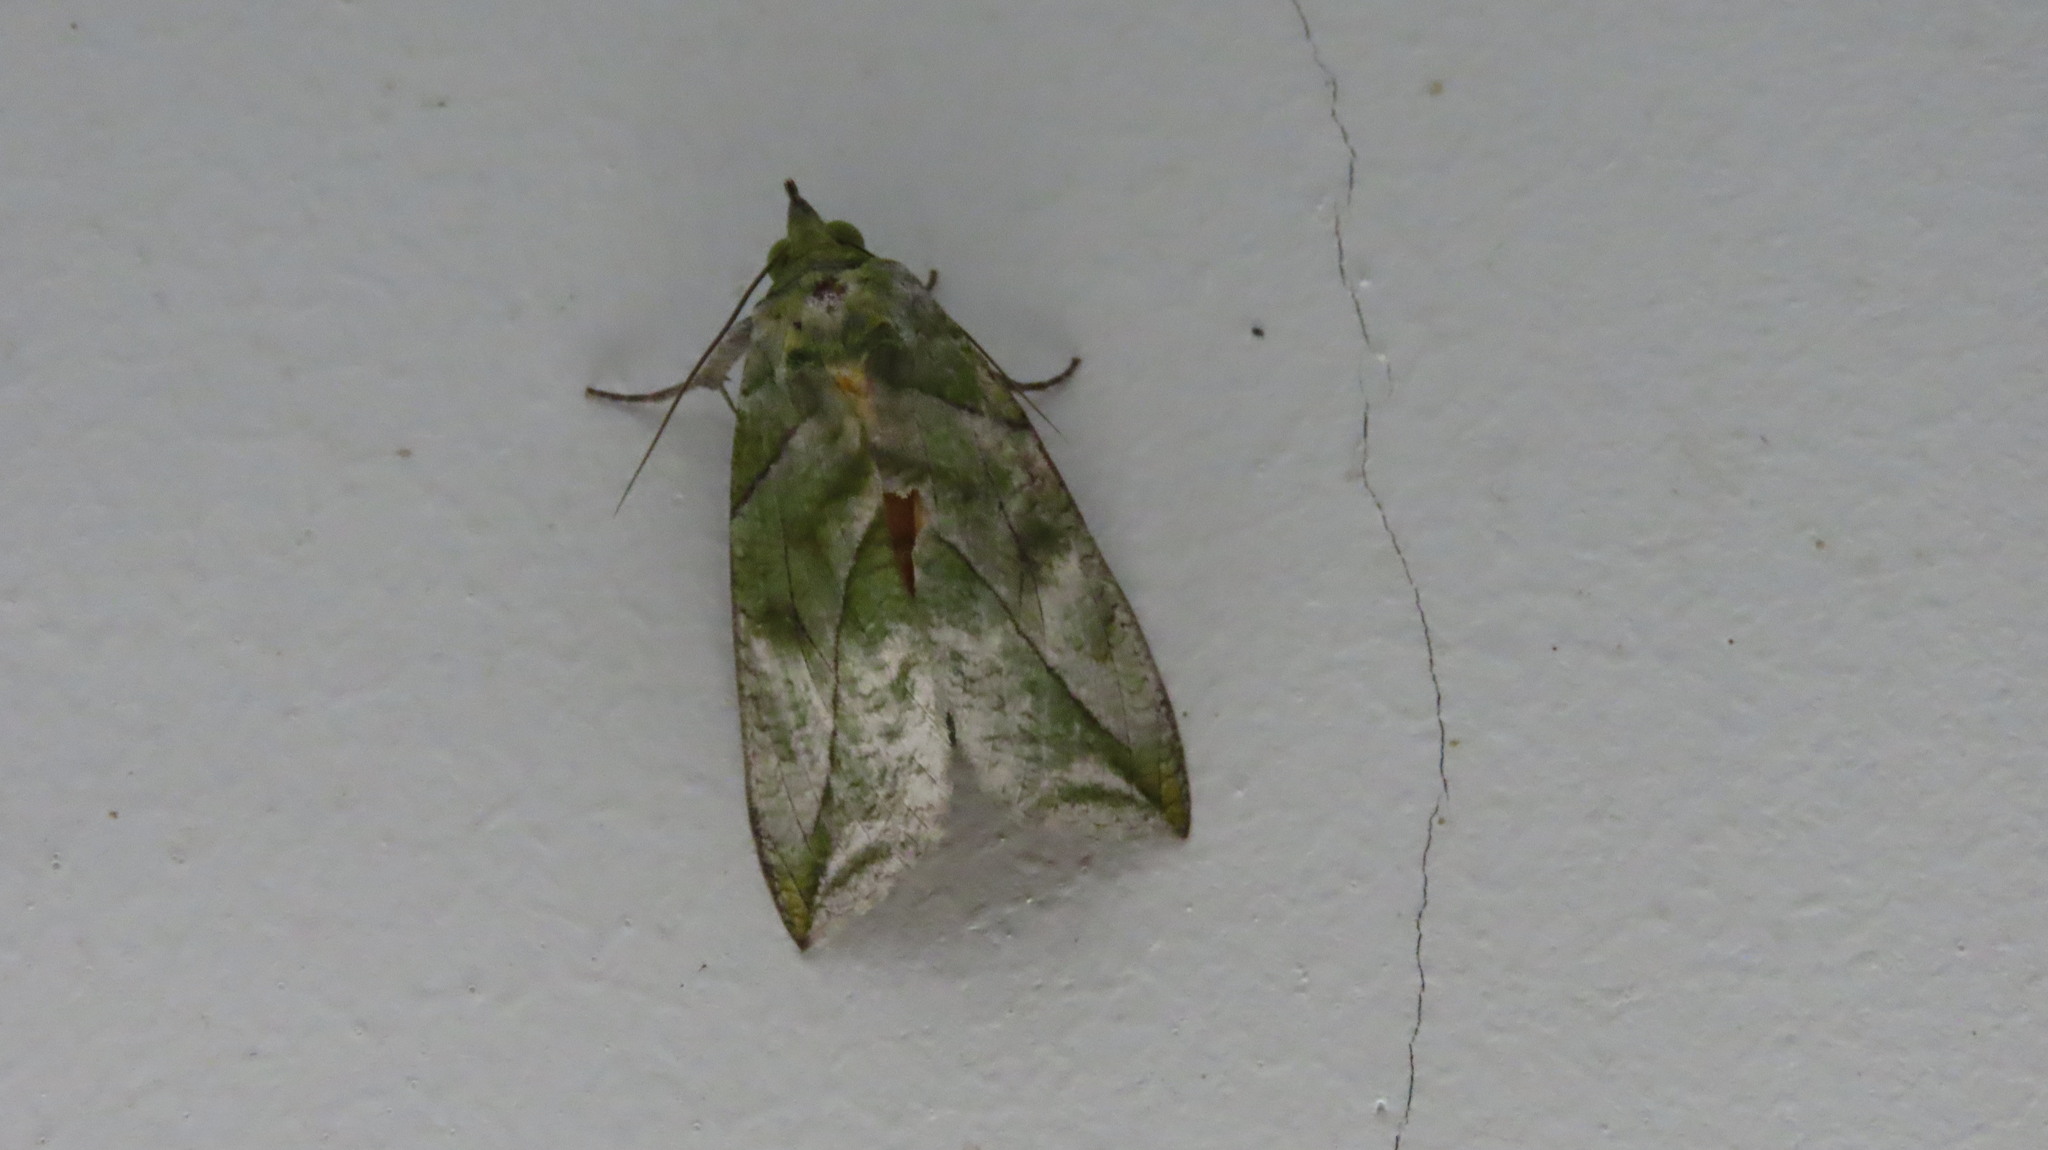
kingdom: Animalia
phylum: Arthropoda
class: Insecta
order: Lepidoptera
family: Erebidae
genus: Eudocima
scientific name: Eudocima hypermnestra
